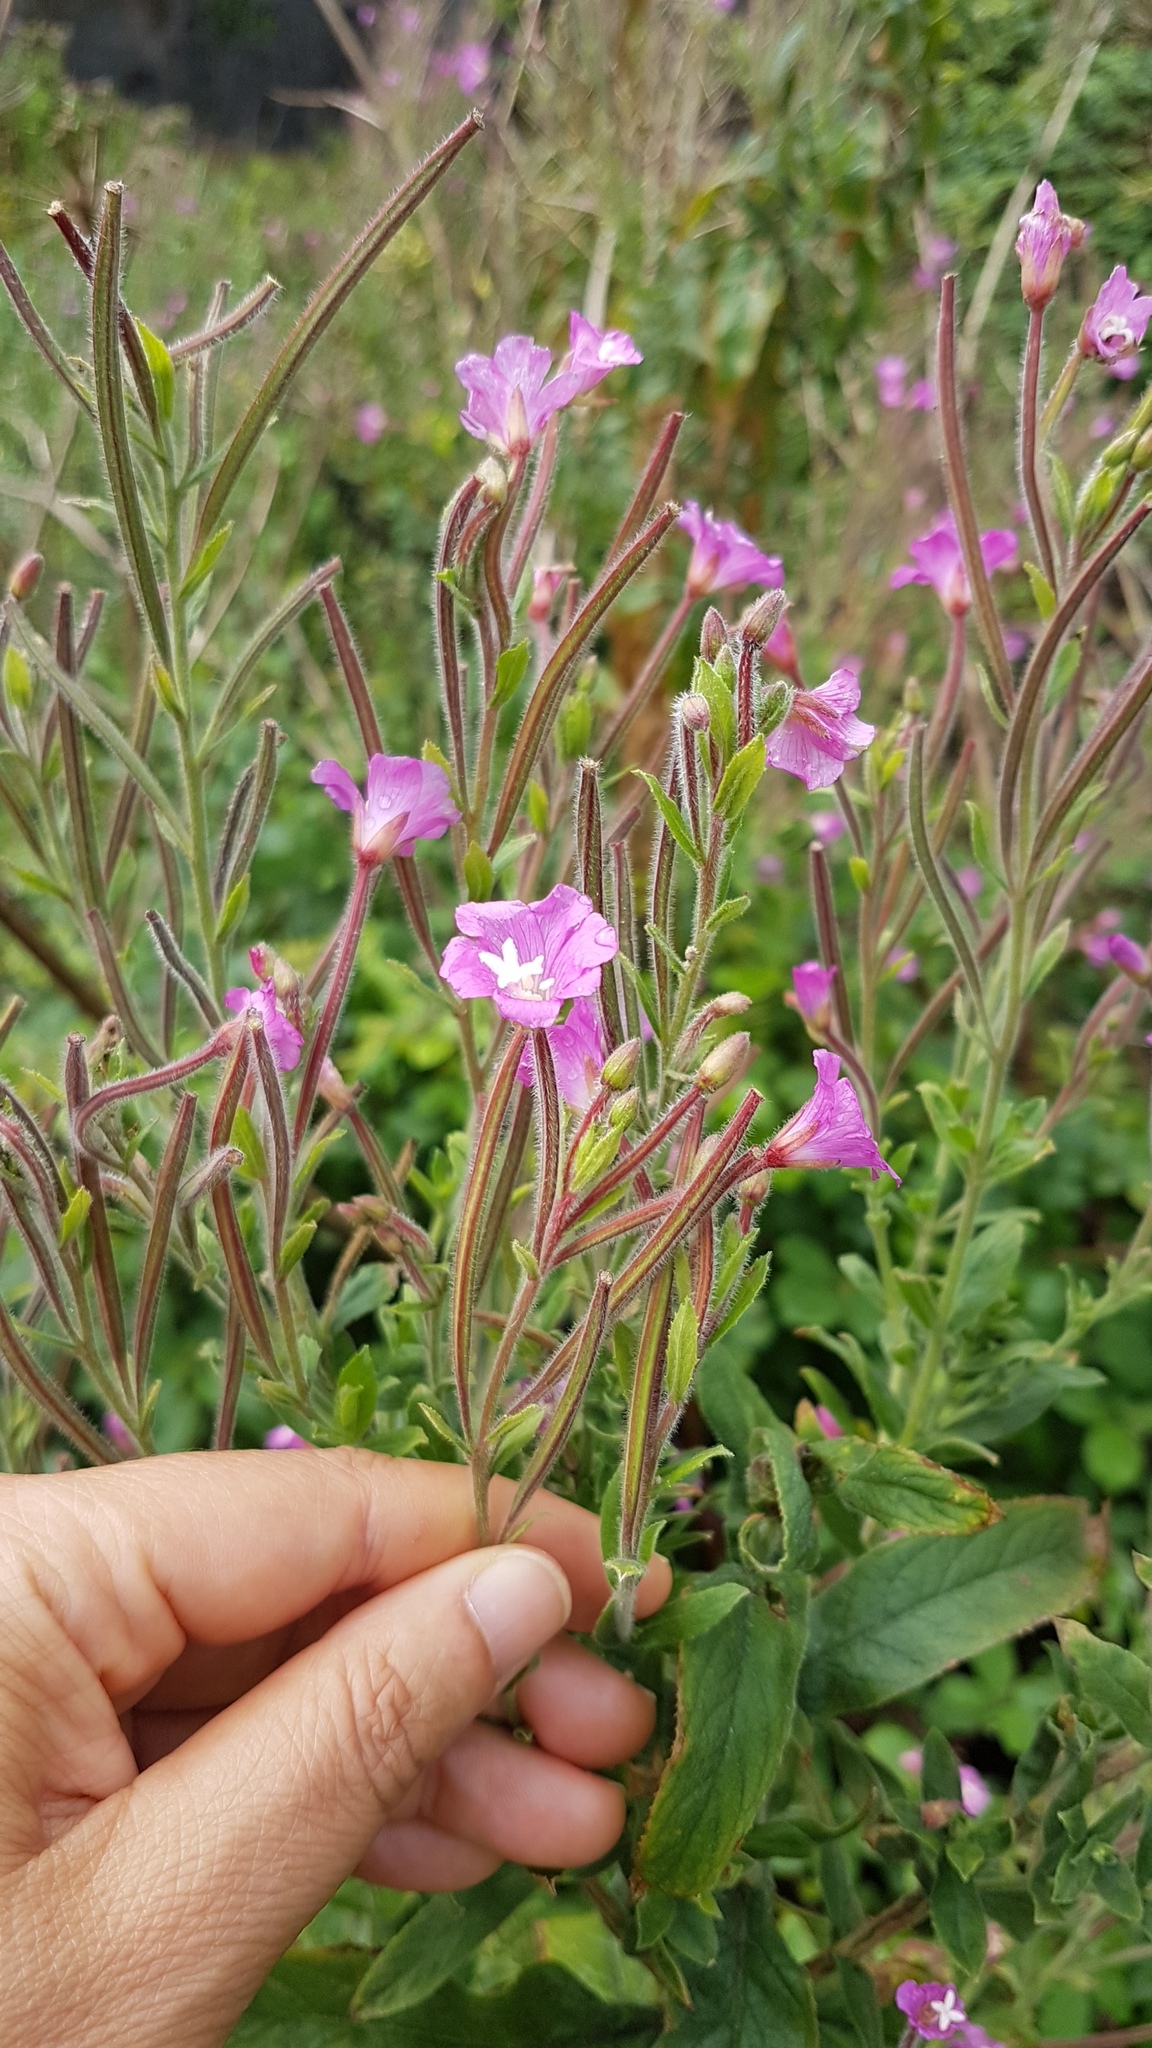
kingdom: Plantae
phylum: Tracheophyta
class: Magnoliopsida
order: Myrtales
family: Onagraceae
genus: Epilobium
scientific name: Epilobium hirsutum
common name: Great willowherb
